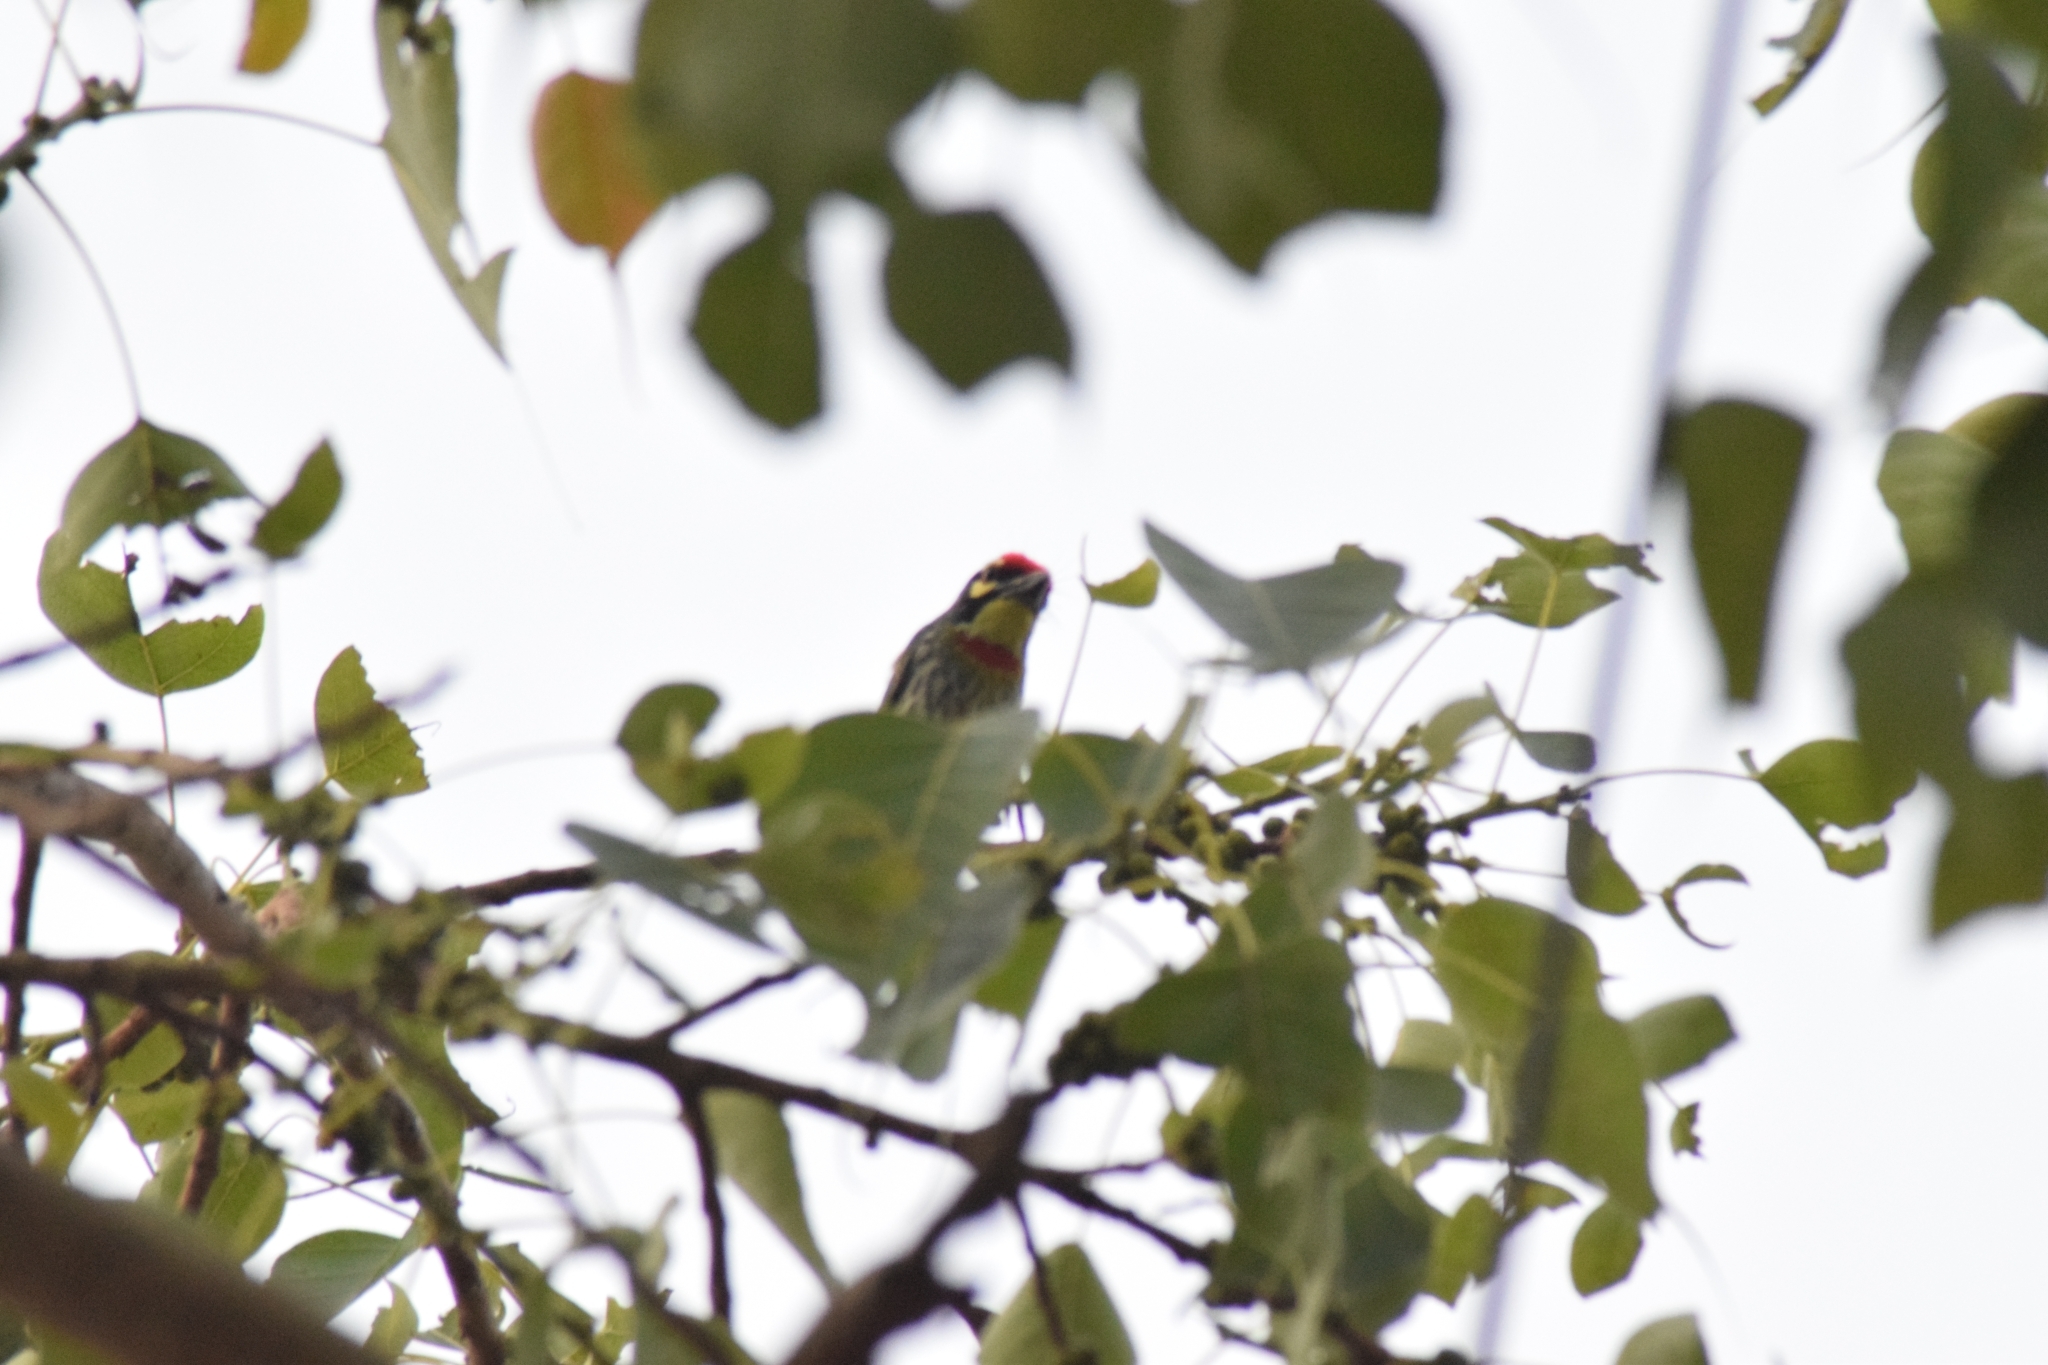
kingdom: Animalia
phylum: Chordata
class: Aves
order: Piciformes
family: Megalaimidae
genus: Psilopogon
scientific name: Psilopogon haemacephalus
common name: Coppersmith barbet
